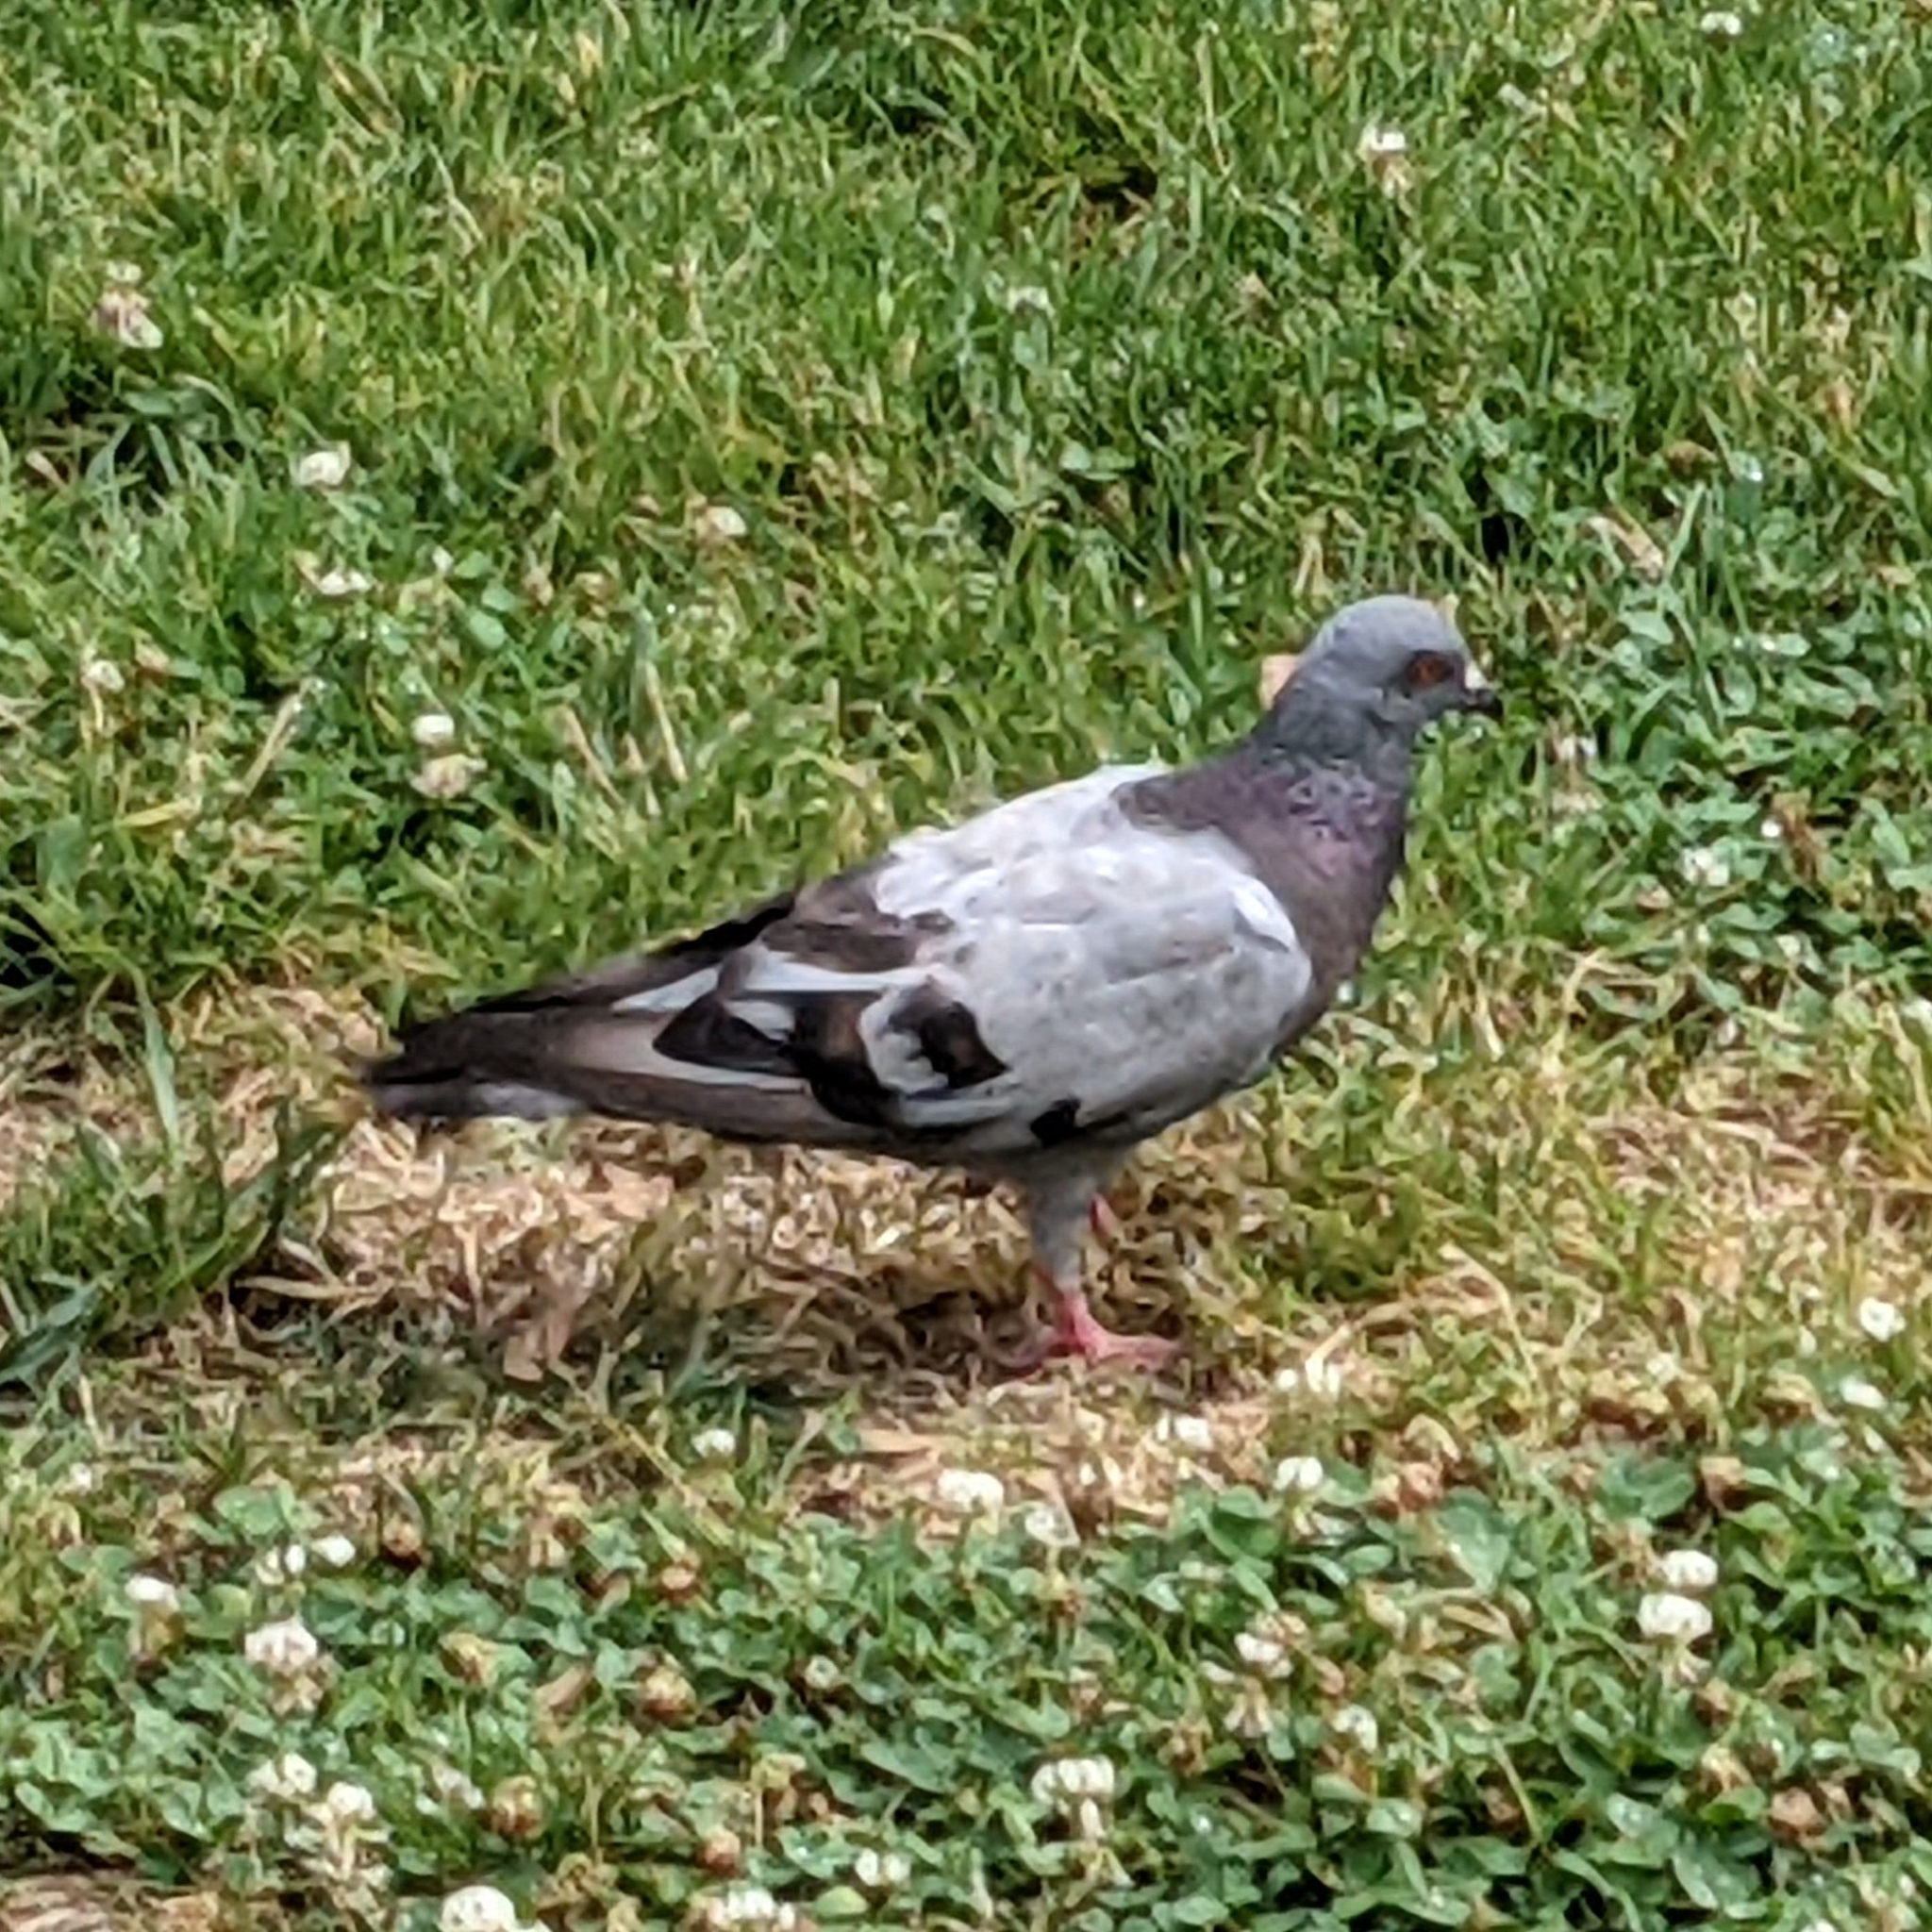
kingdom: Animalia
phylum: Chordata
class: Aves
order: Columbiformes
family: Columbidae
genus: Columba
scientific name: Columba livia
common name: Rock pigeon
